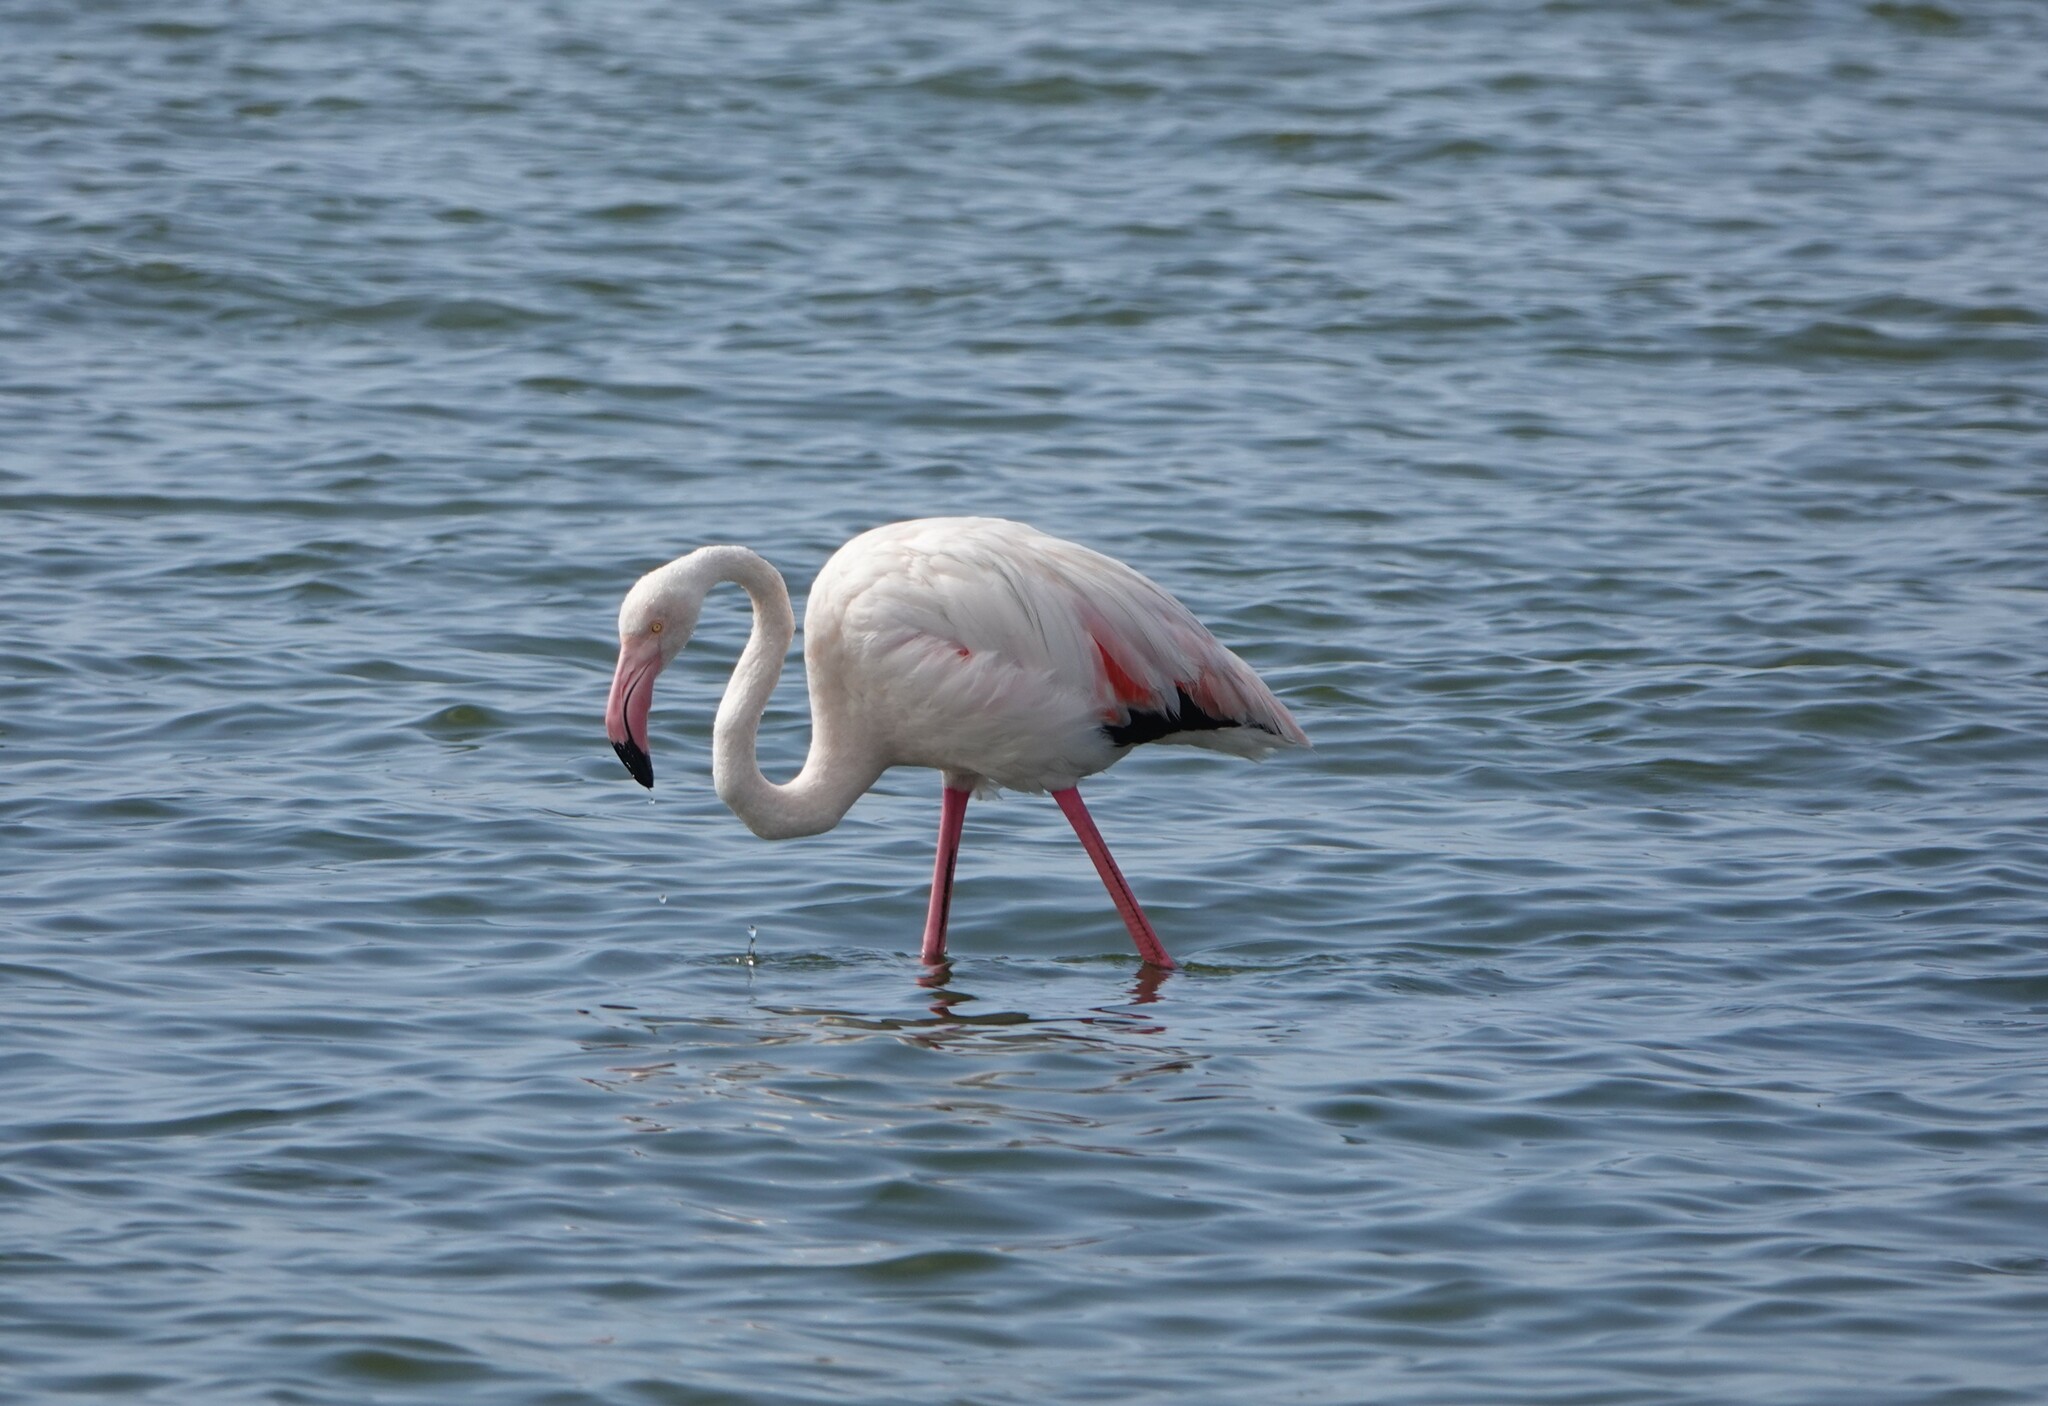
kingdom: Animalia
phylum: Chordata
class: Aves
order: Phoenicopteriformes
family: Phoenicopteridae
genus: Phoenicopterus
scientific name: Phoenicopterus roseus
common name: Greater flamingo
